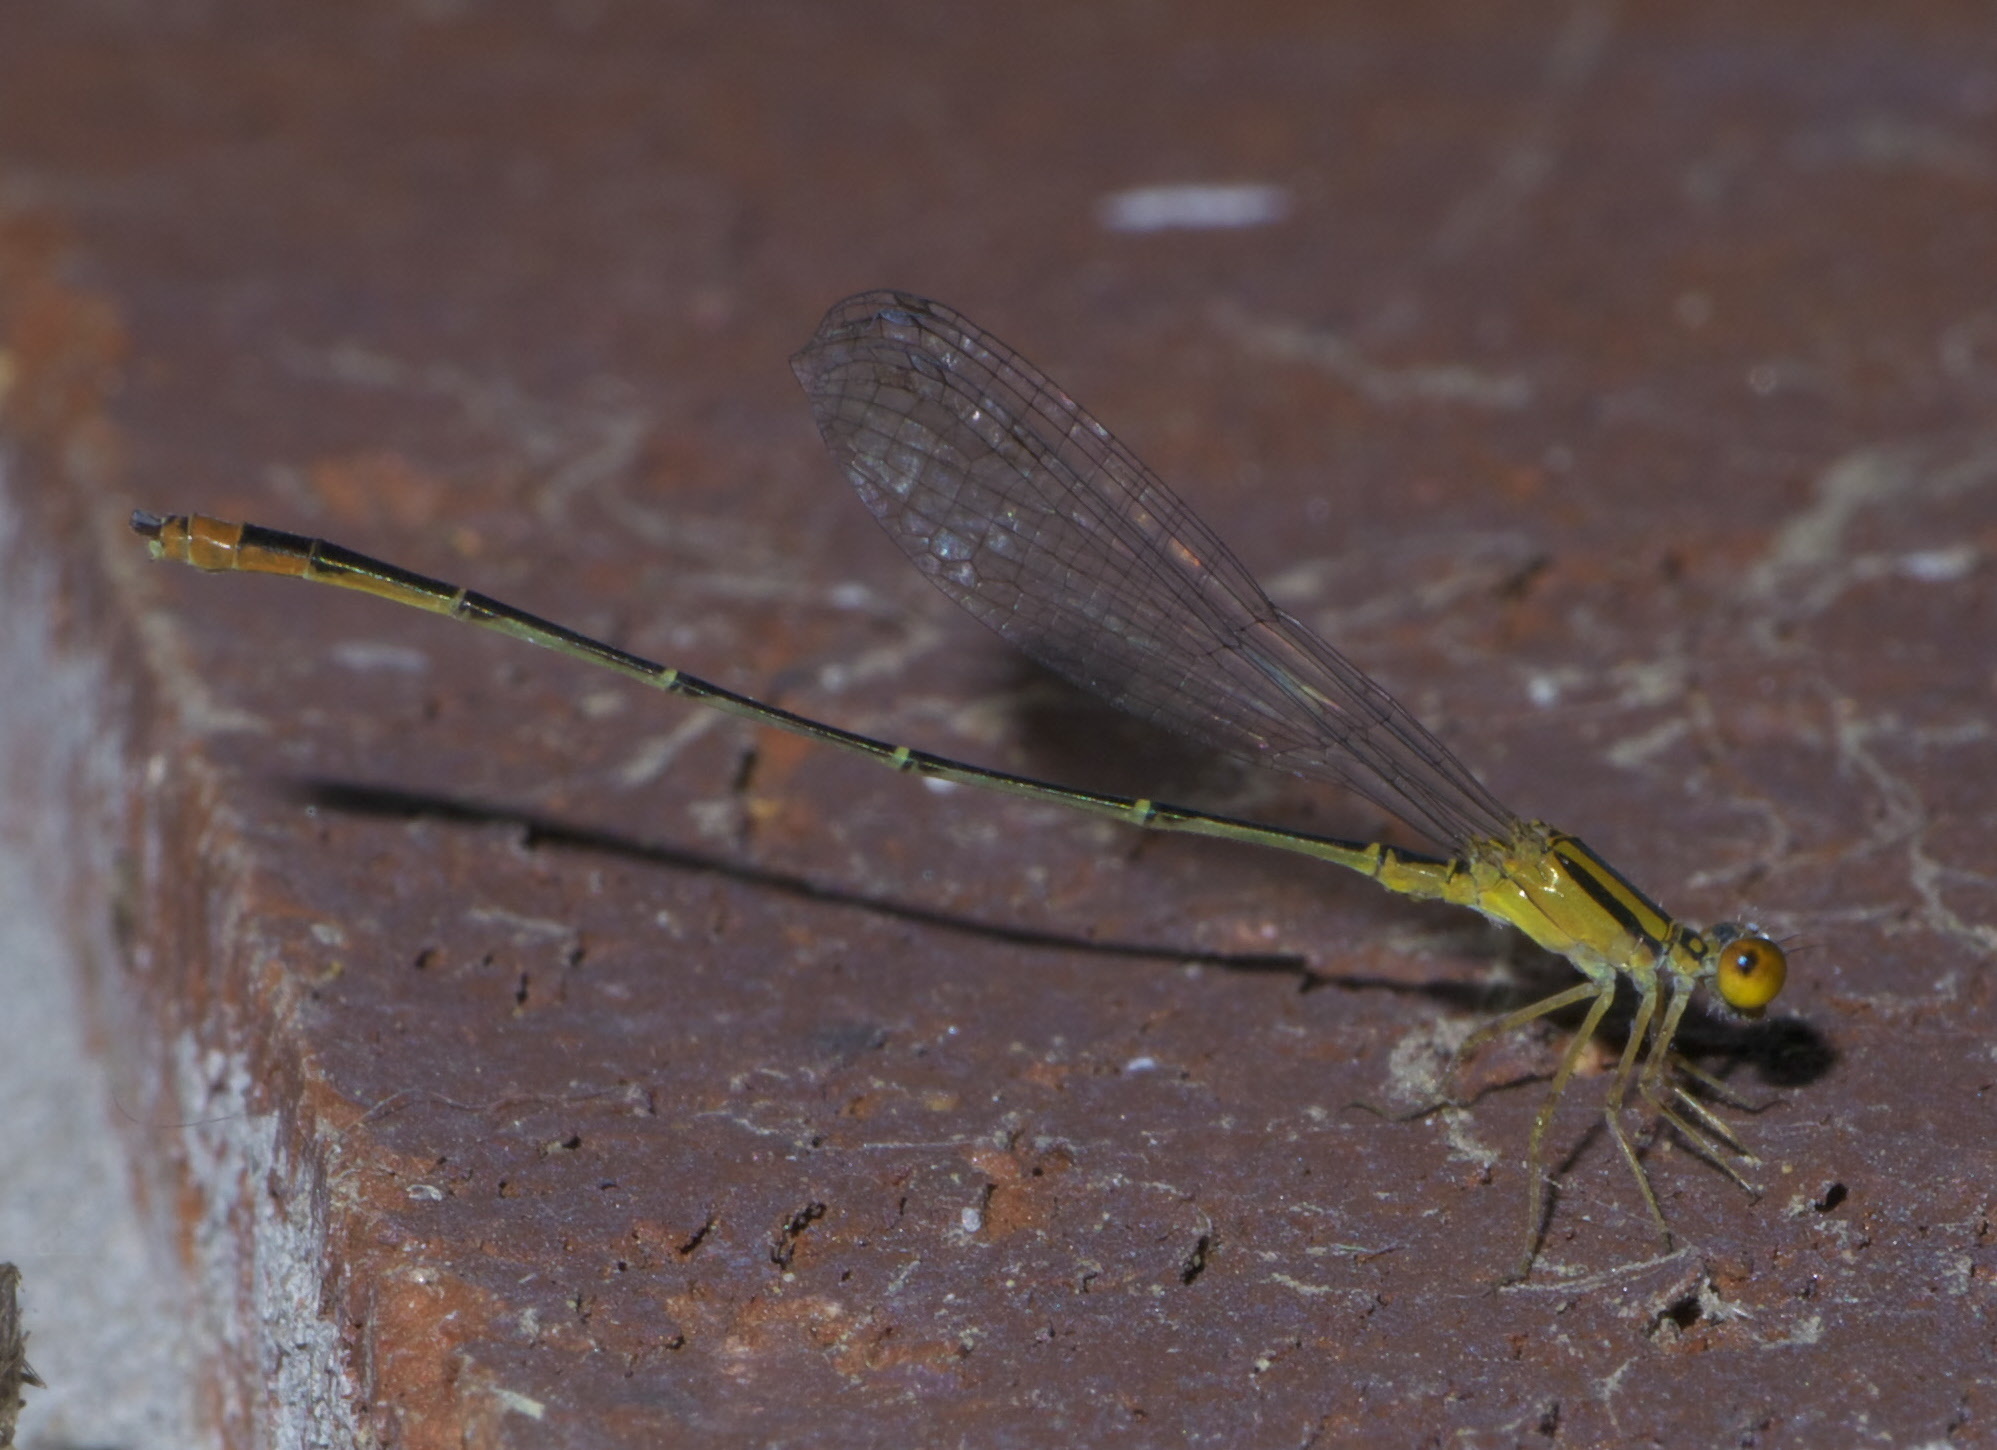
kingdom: Animalia
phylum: Arthropoda
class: Insecta
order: Odonata
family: Coenagrionidae
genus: Enallagma
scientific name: Enallagma signatum
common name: Orange bluet
